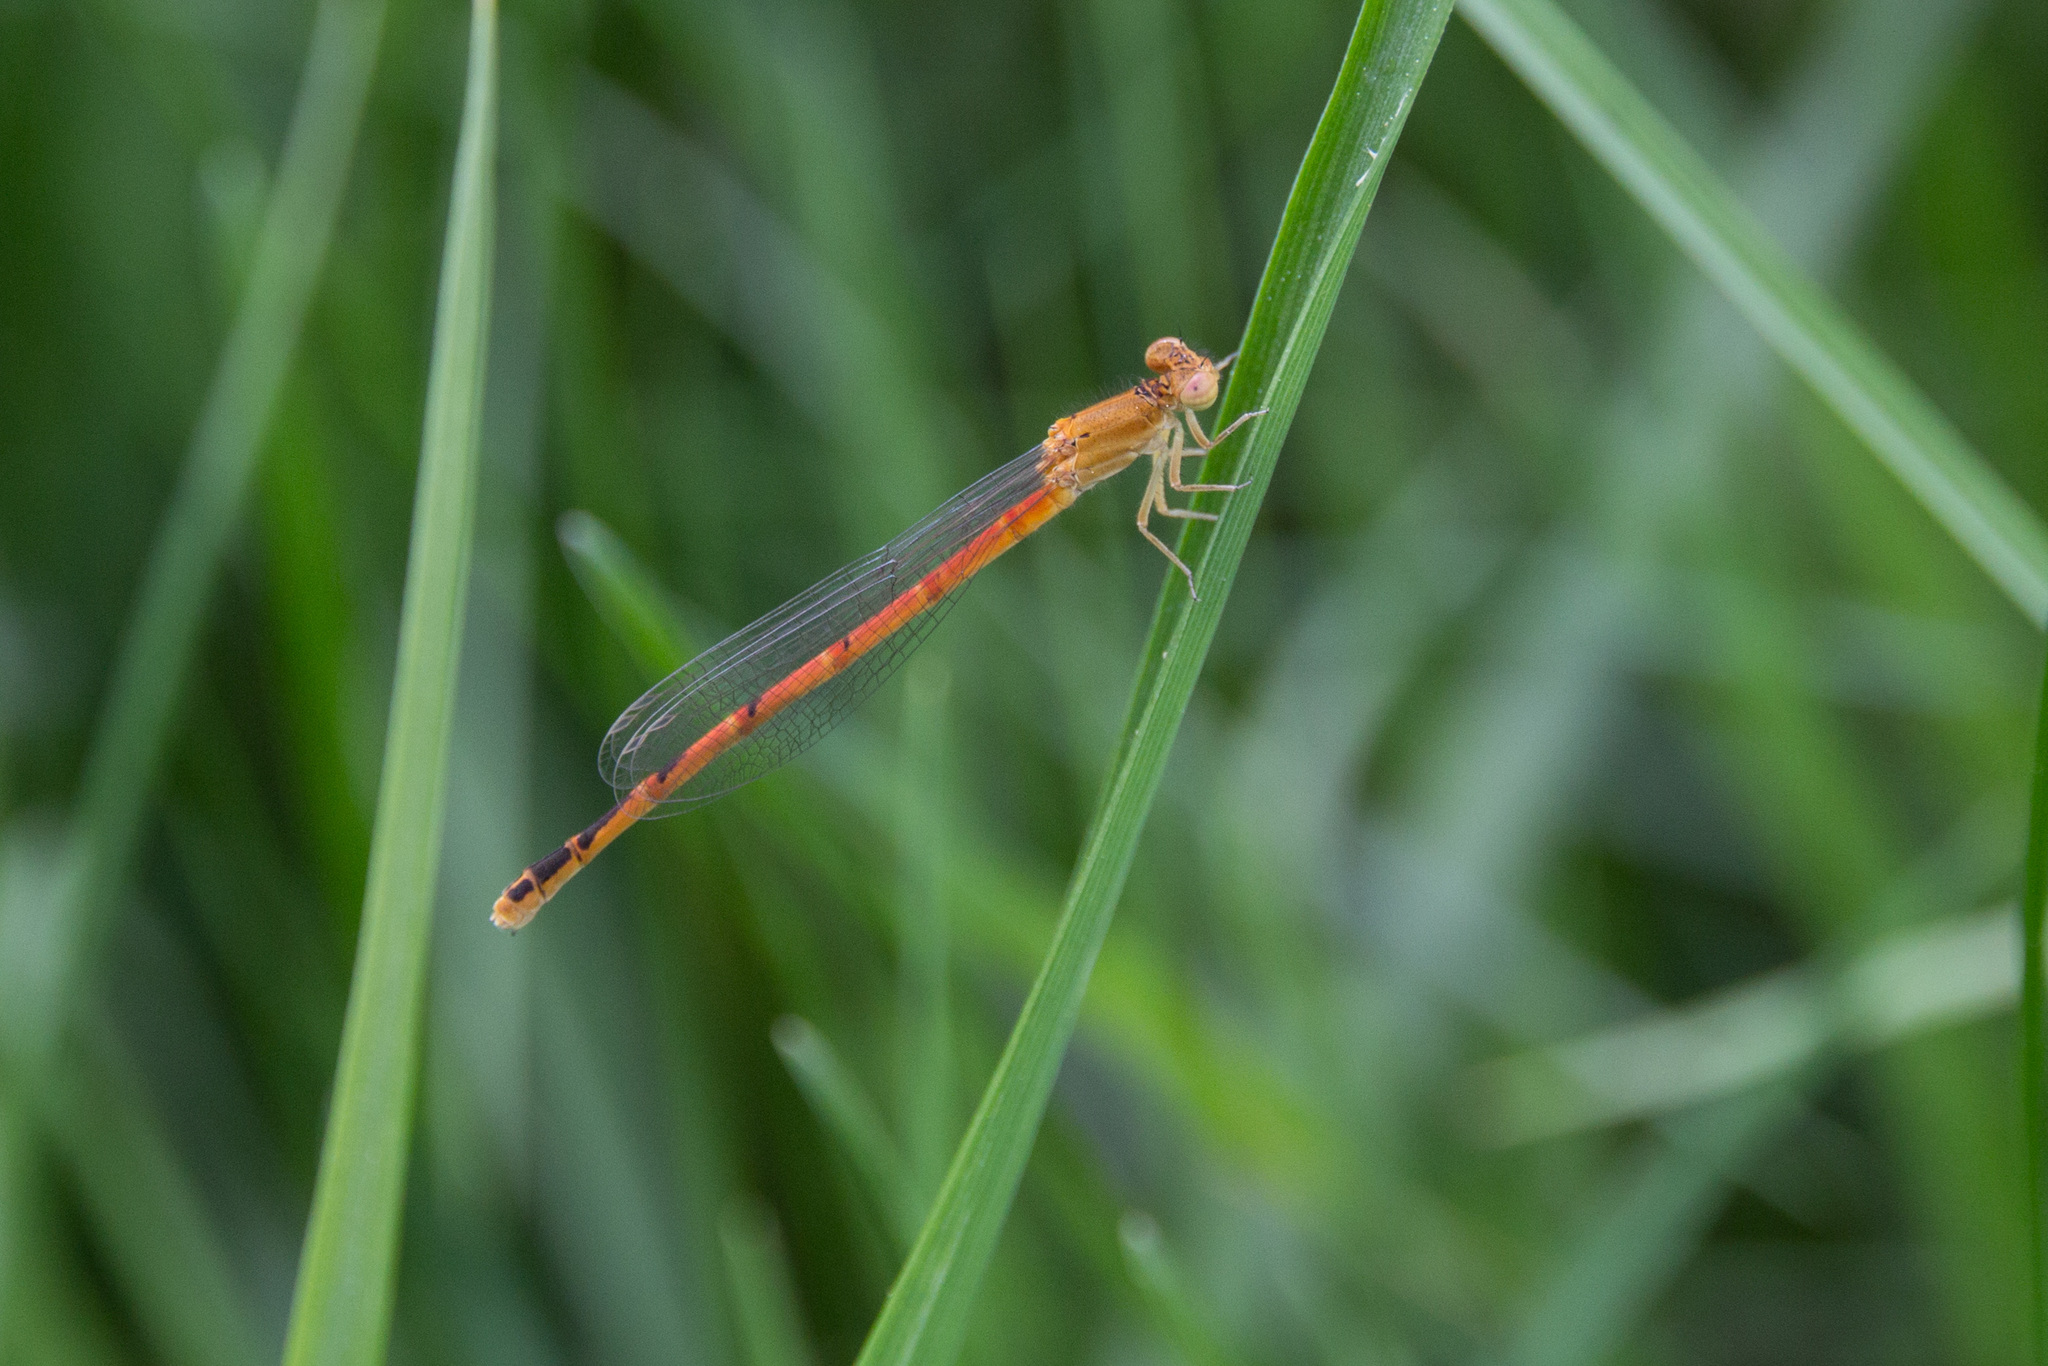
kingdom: Animalia
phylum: Arthropoda
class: Insecta
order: Odonata
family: Coenagrionidae
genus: Amphiagrion
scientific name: Amphiagrion saucium
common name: Eastern red damsel
